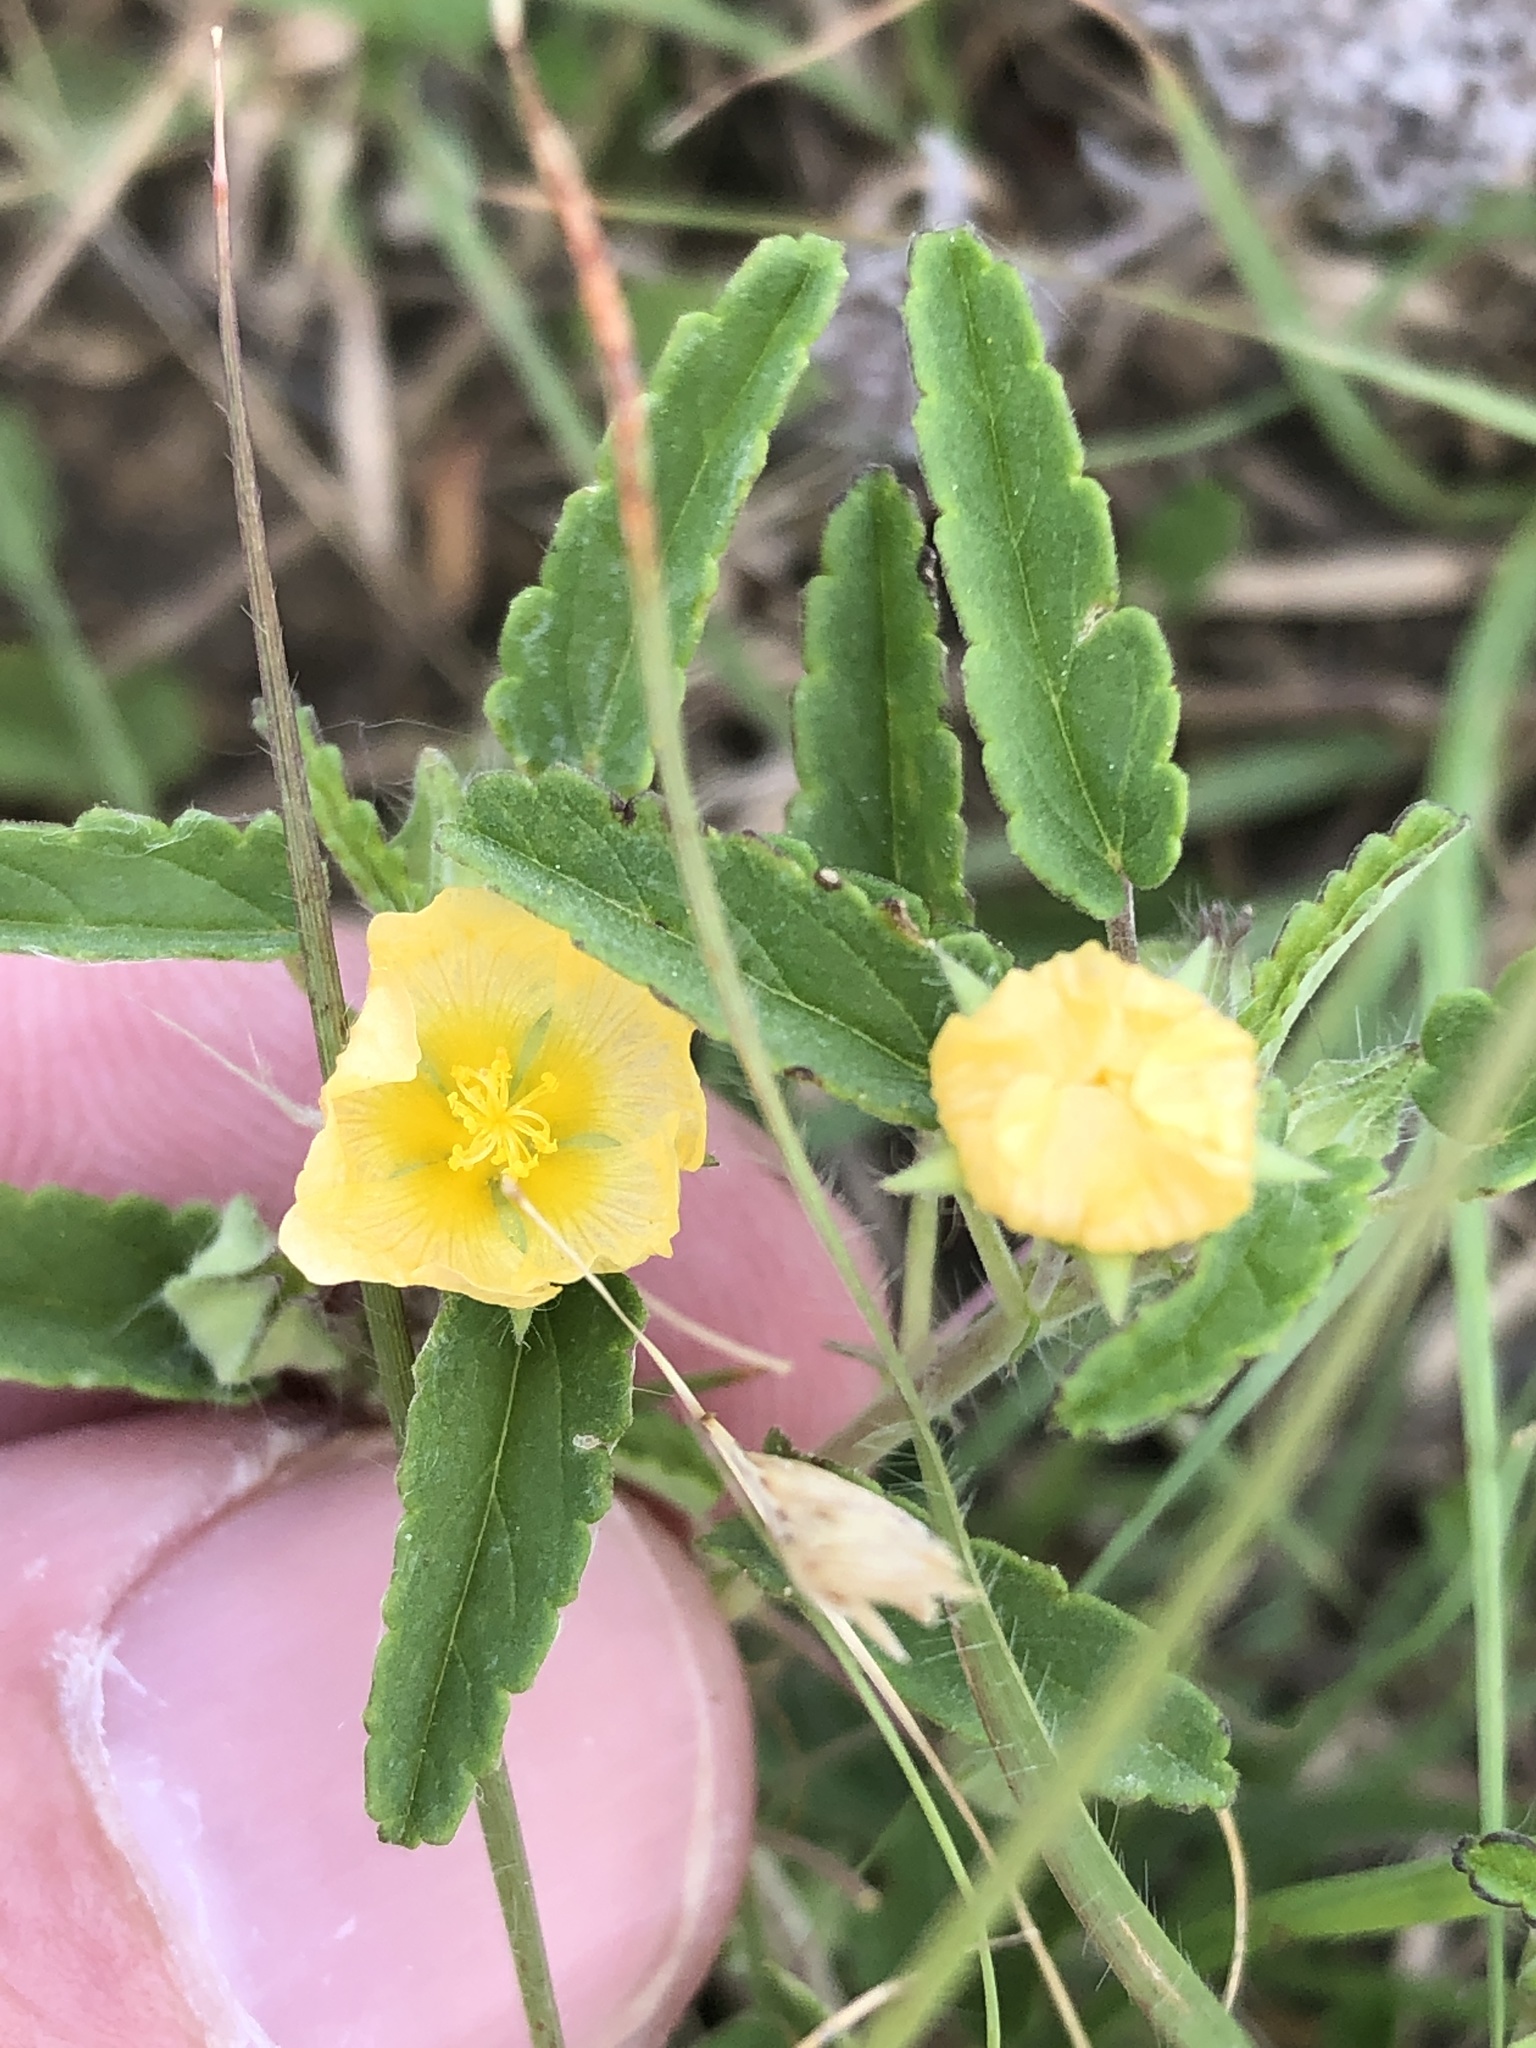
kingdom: Plantae
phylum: Tracheophyta
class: Magnoliopsida
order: Malvales
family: Malvaceae
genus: Sida
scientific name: Sida abutilifolia
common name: Spreading fanpetals
